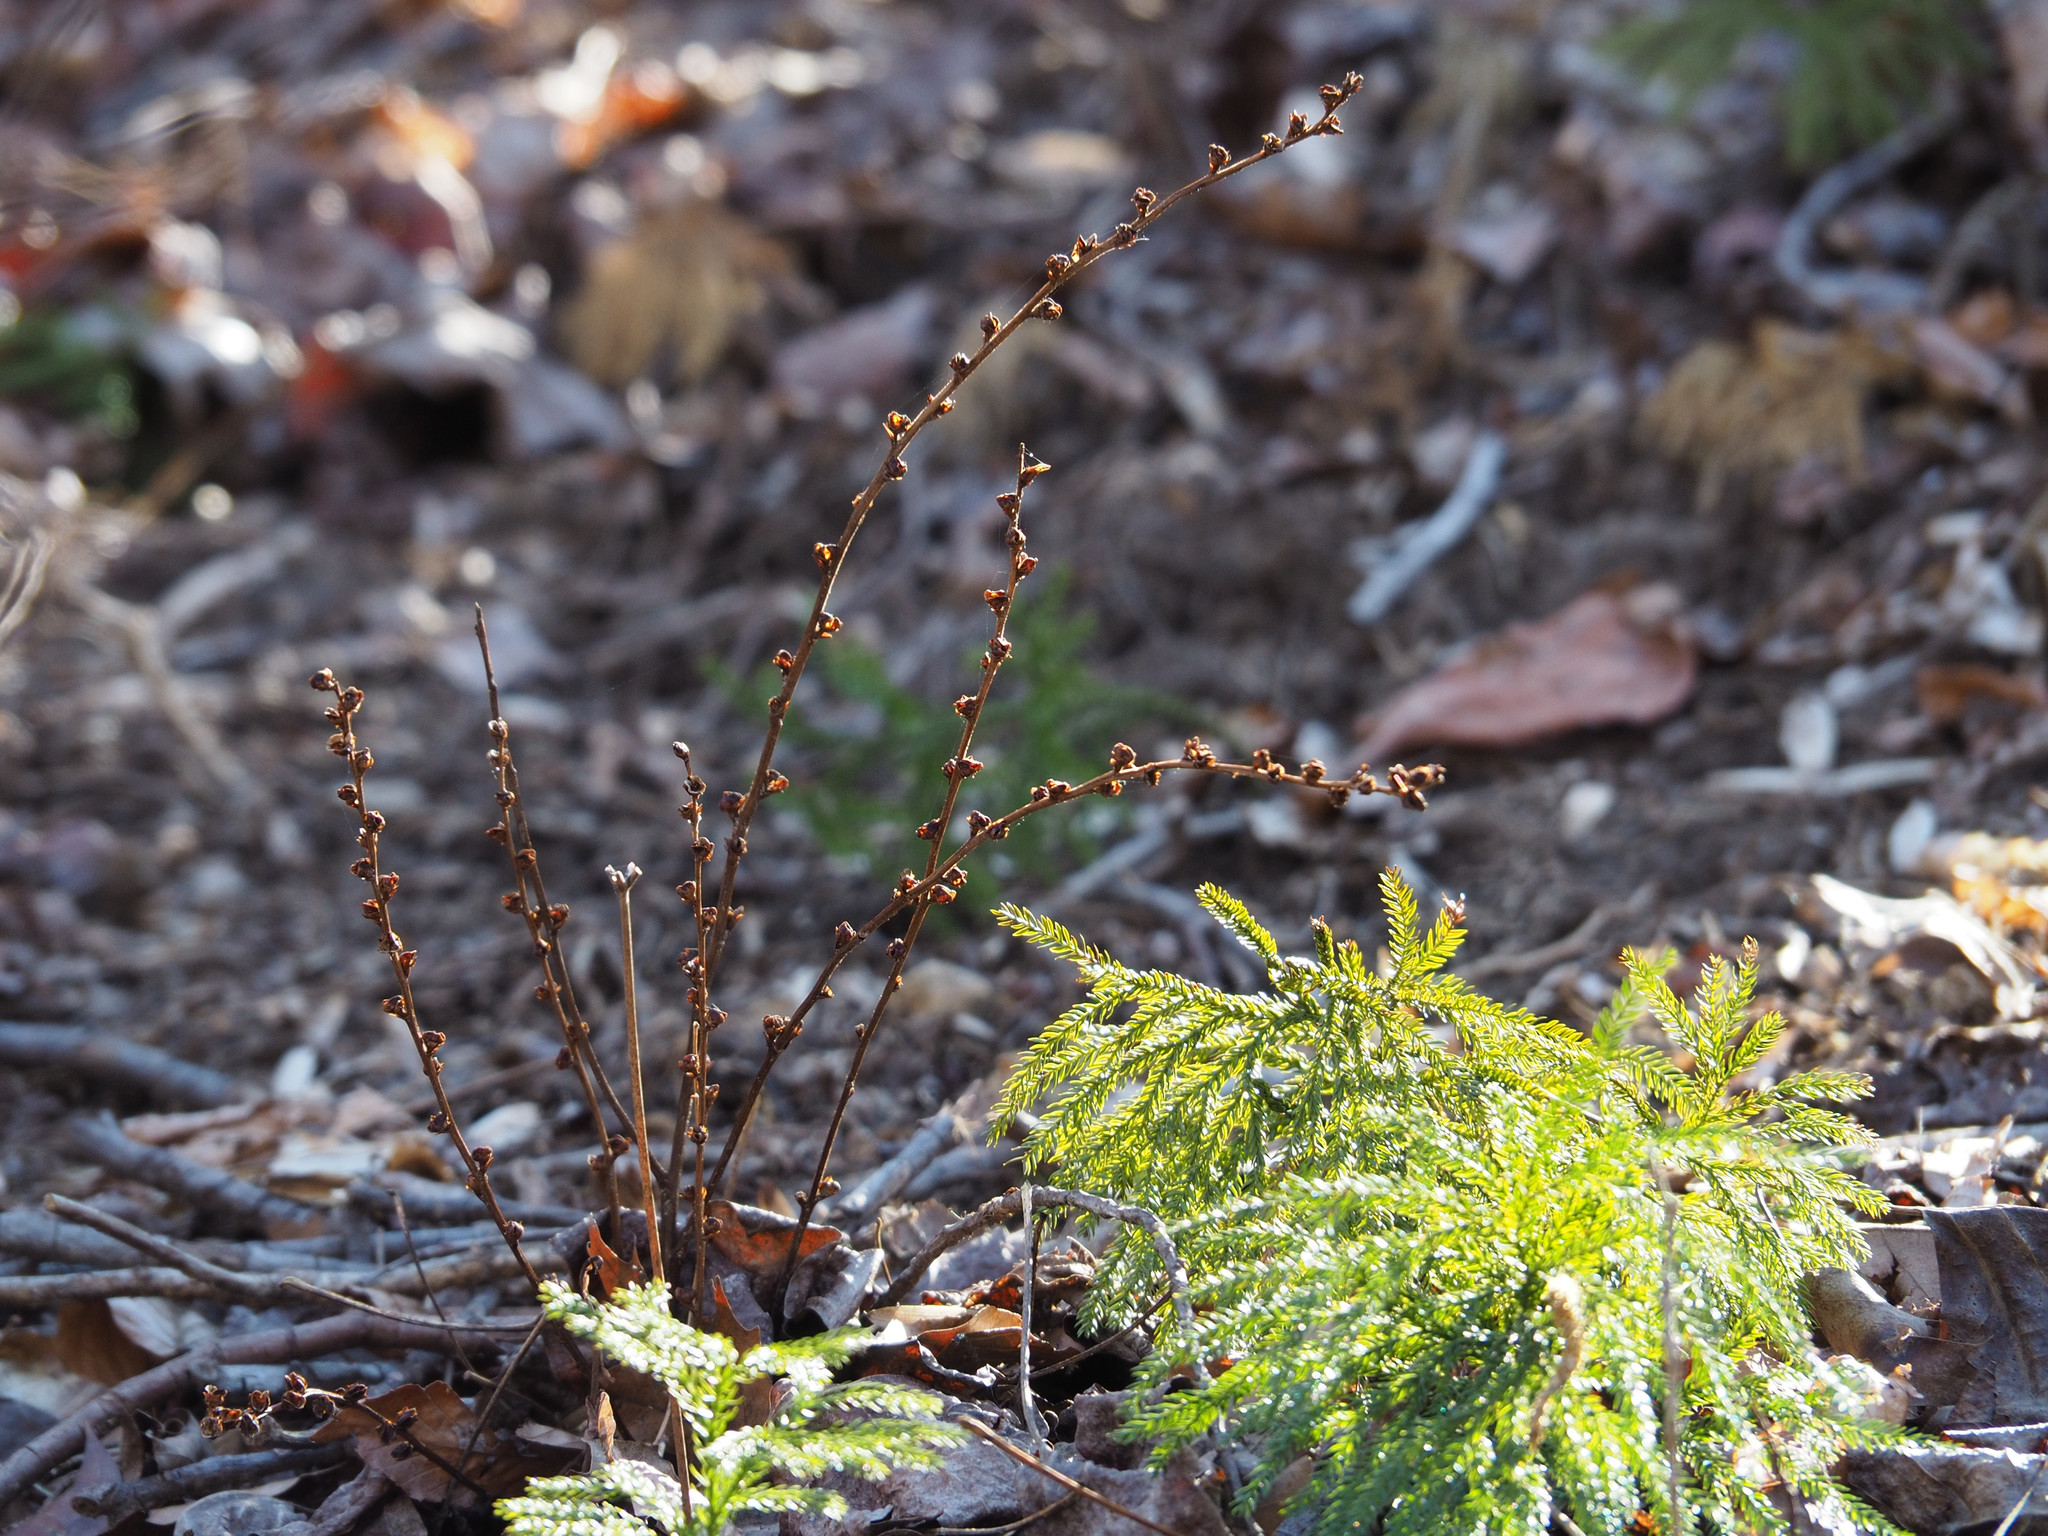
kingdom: Plantae
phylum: Tracheophyta
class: Magnoliopsida
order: Lamiales
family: Orobanchaceae
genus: Epifagus
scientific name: Epifagus virginiana
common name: Beechdrops
